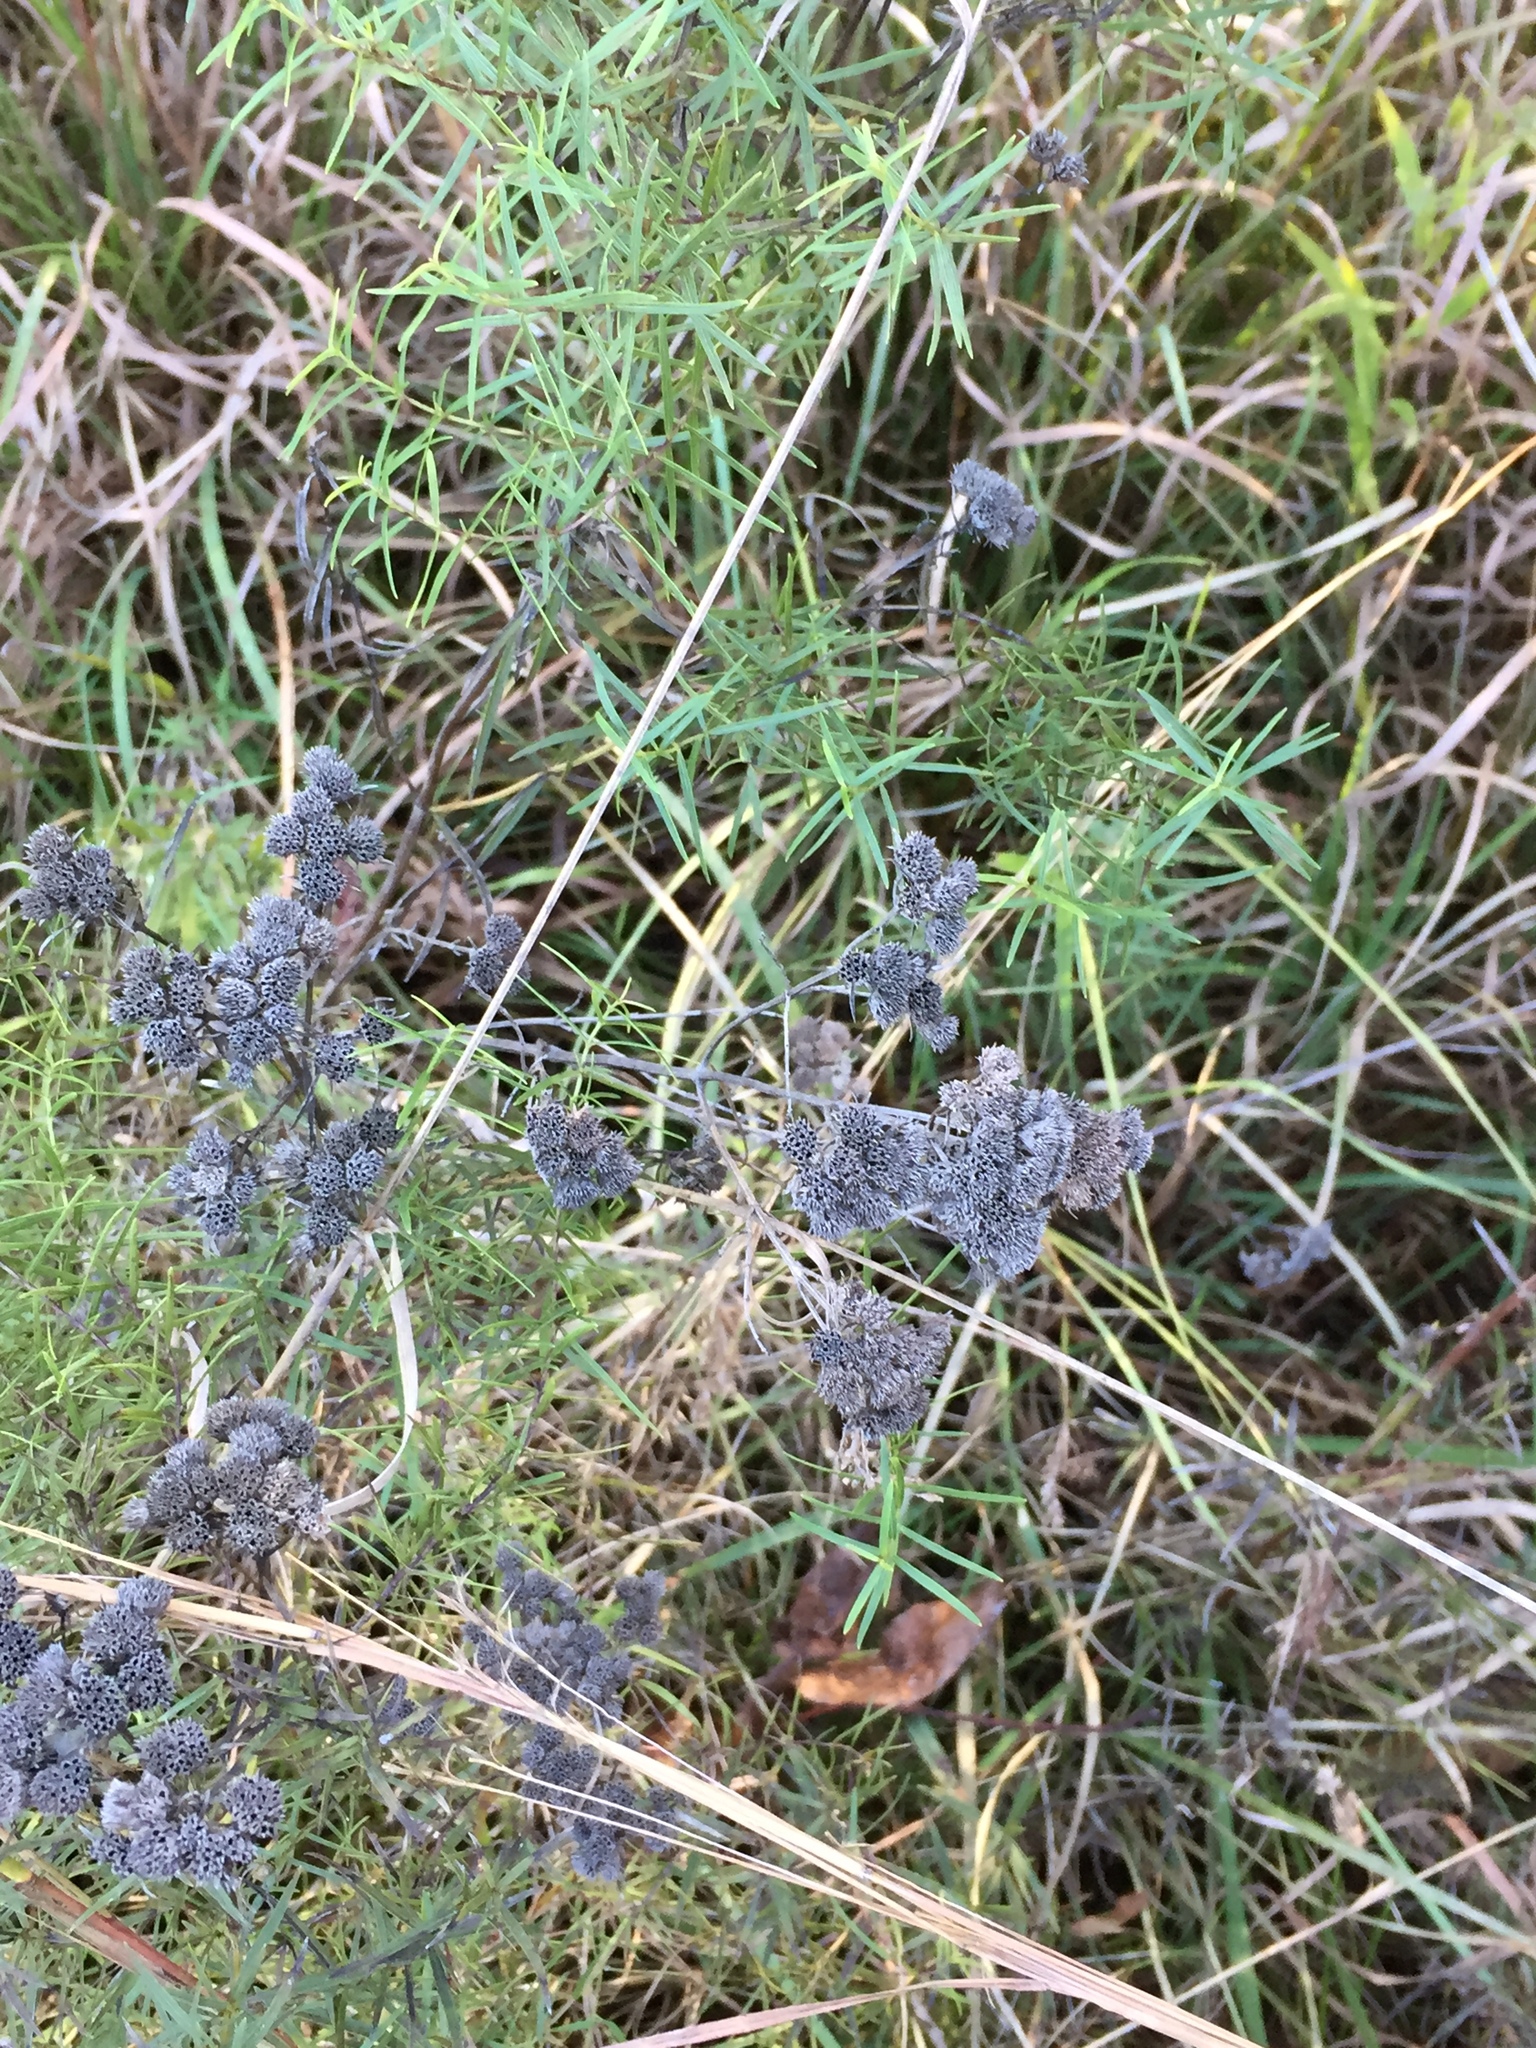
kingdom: Plantae
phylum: Tracheophyta
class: Magnoliopsida
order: Lamiales
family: Lamiaceae
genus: Pycnanthemum
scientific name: Pycnanthemum tenuifolium
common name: Narrow-leaf mountain-mint
